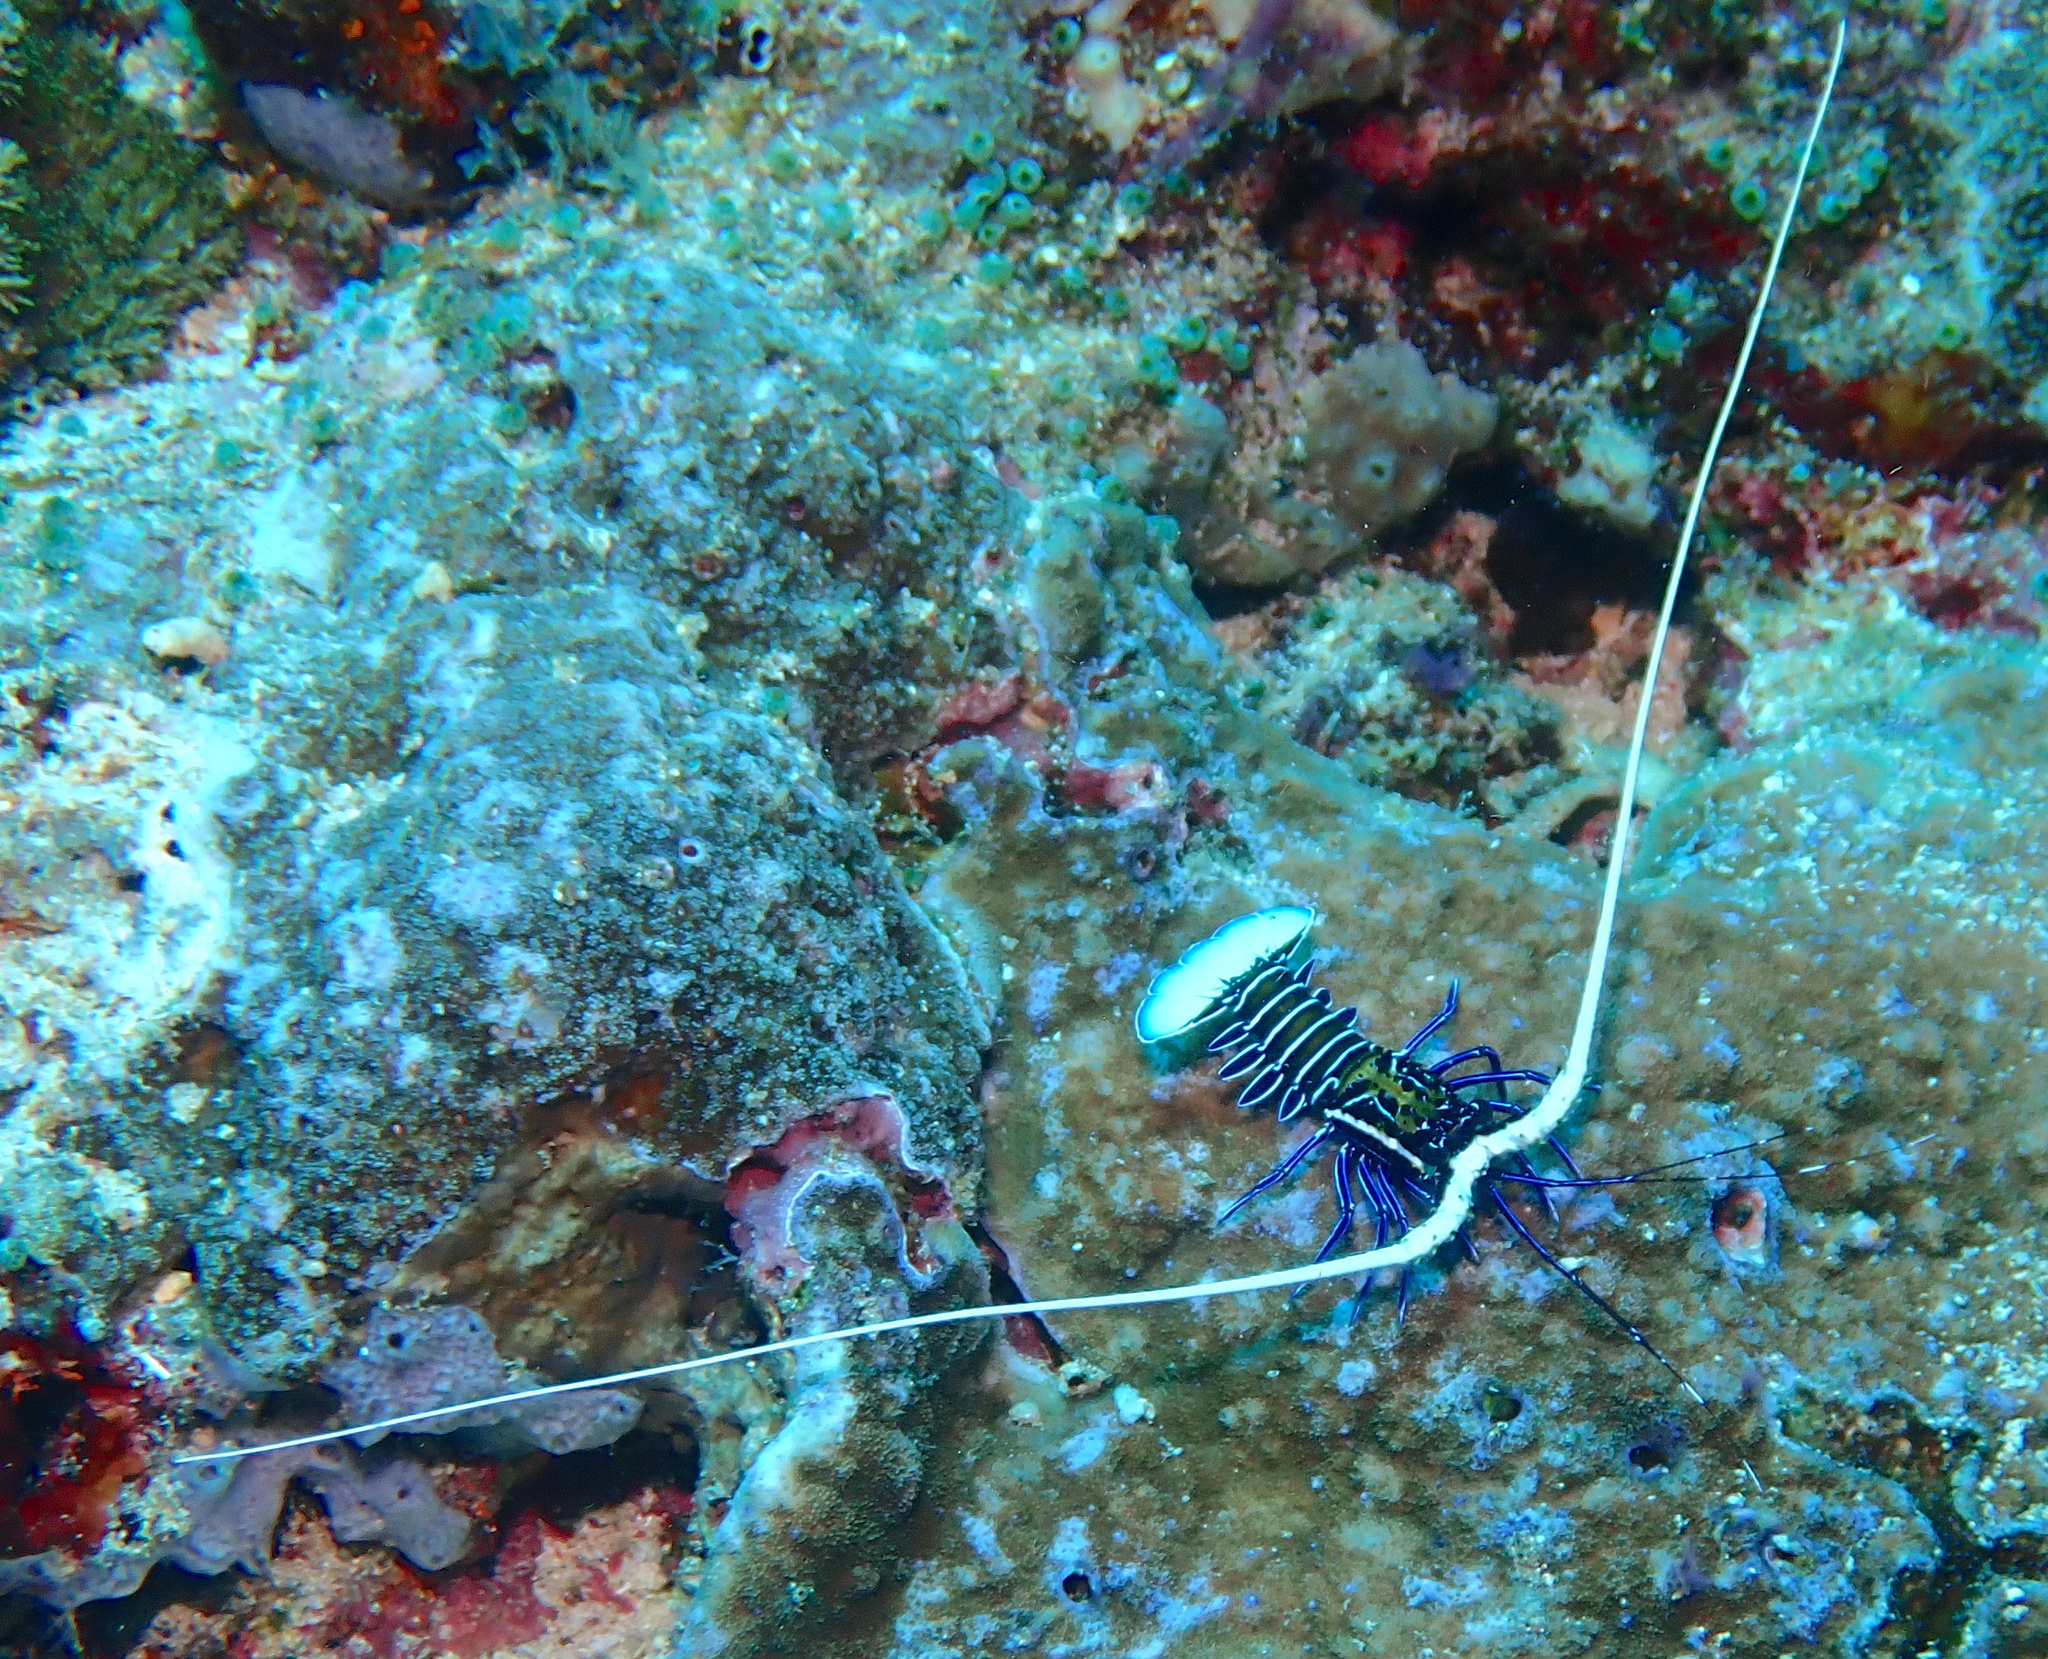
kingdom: Animalia
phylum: Arthropoda
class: Malacostraca
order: Decapoda
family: Palinuridae
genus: Panulirus
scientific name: Panulirus versicolor
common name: Painted spiny lobster
